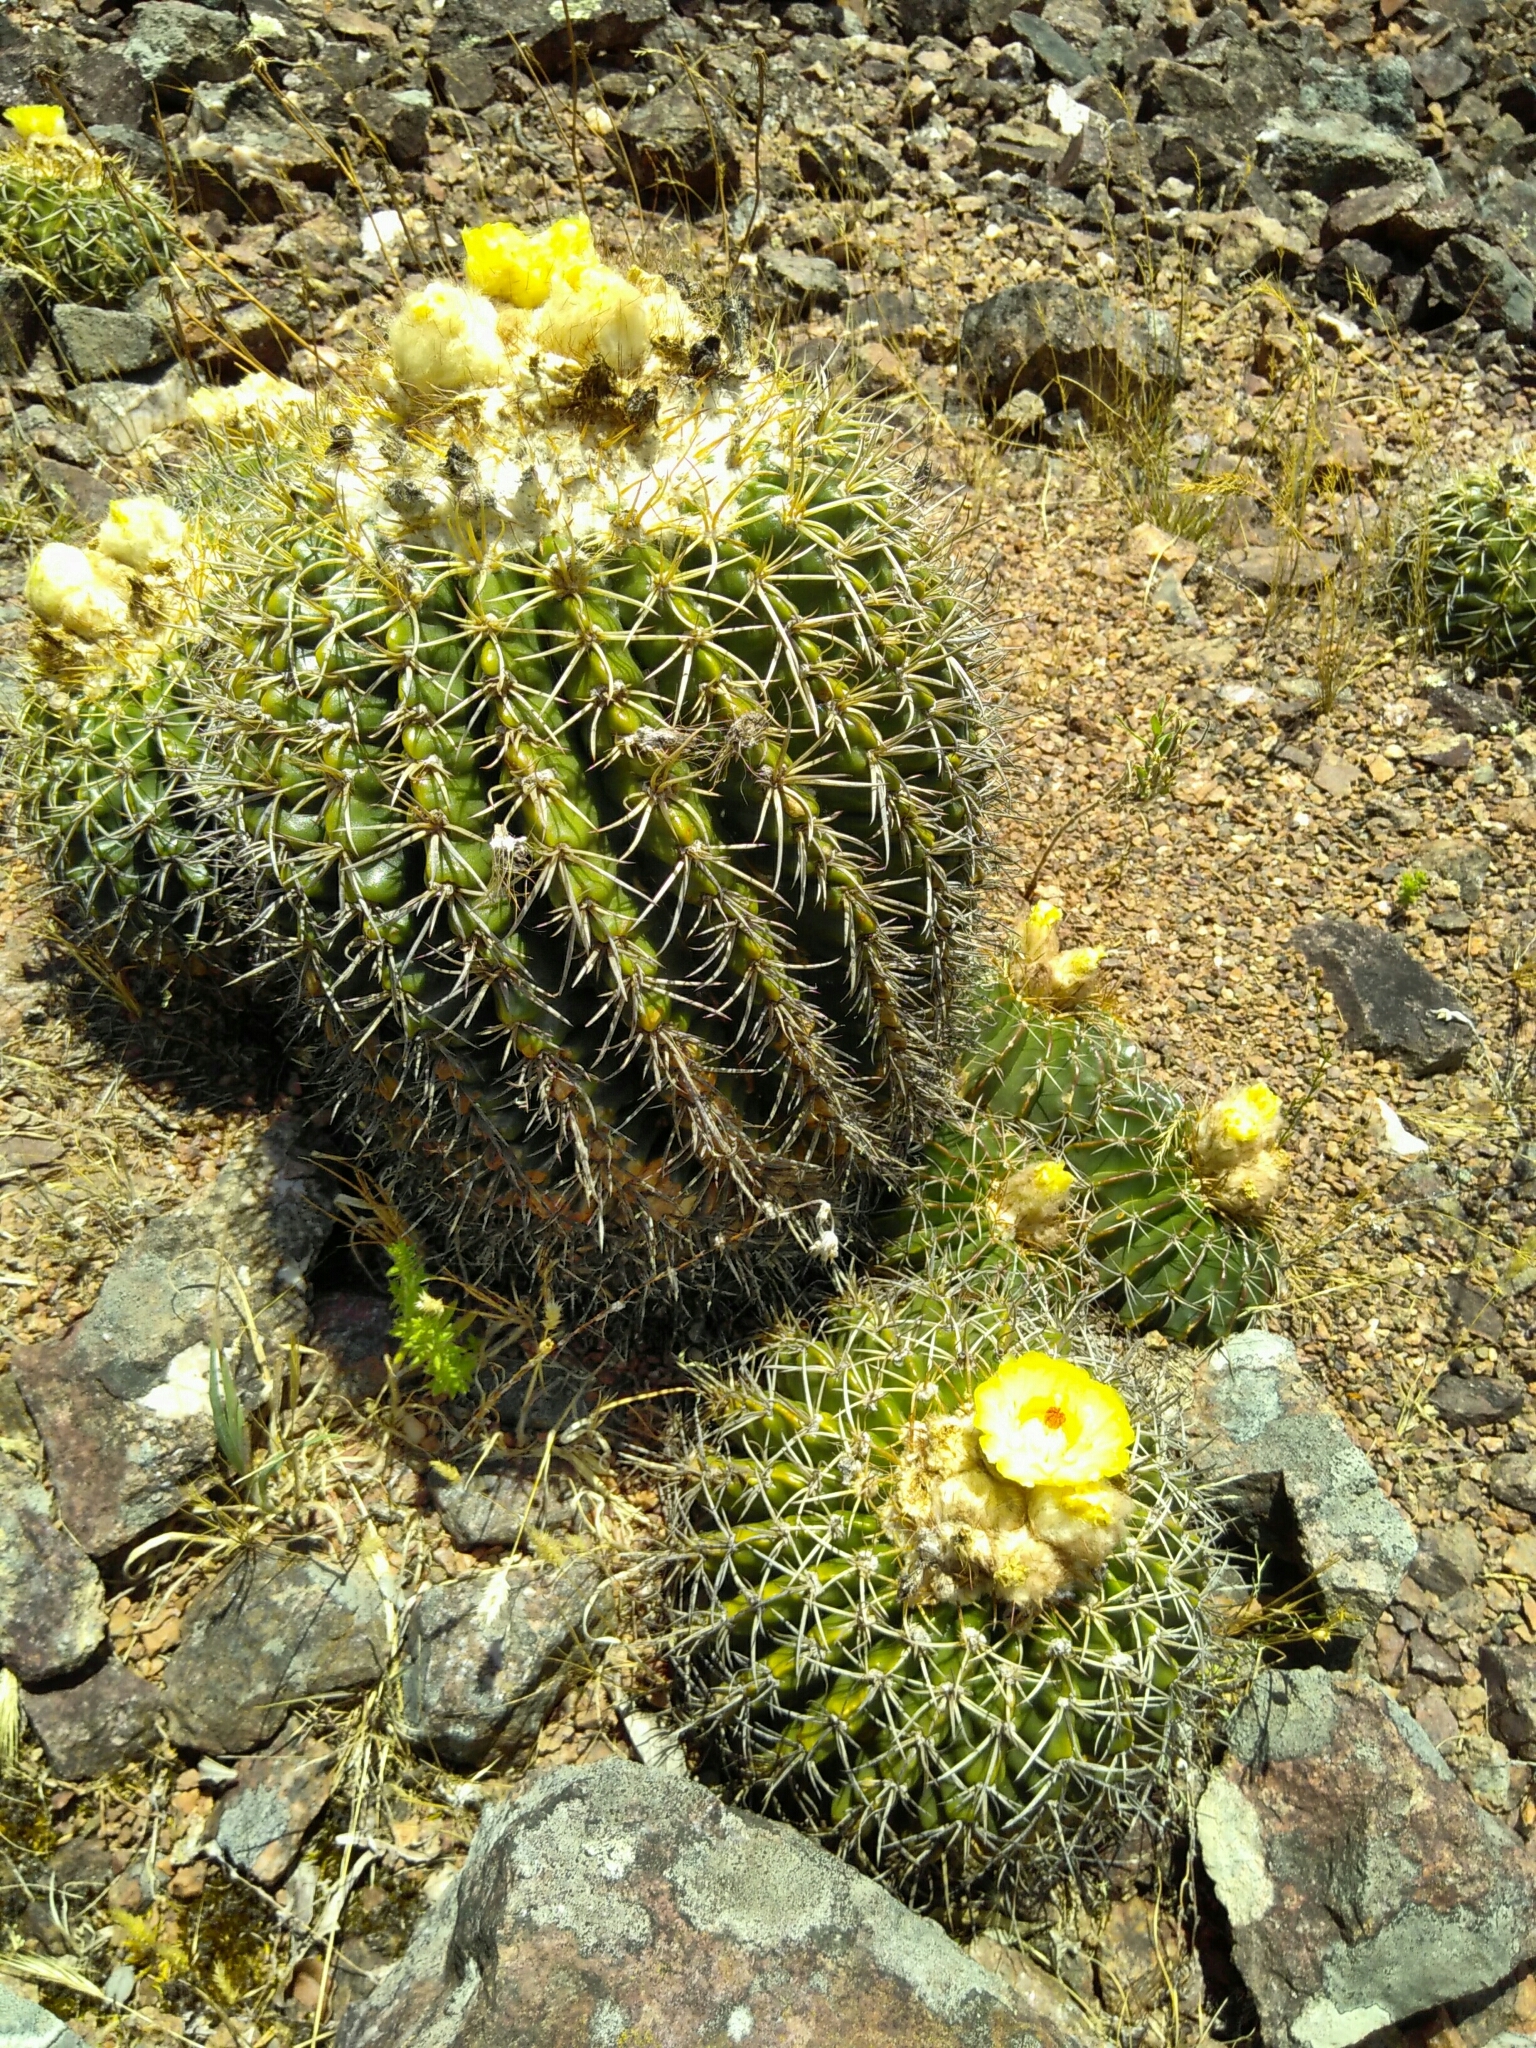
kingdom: Plantae
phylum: Tracheophyta
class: Magnoliopsida
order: Caryophyllales
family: Cactaceae
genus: Parodia
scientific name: Parodia erinacea
